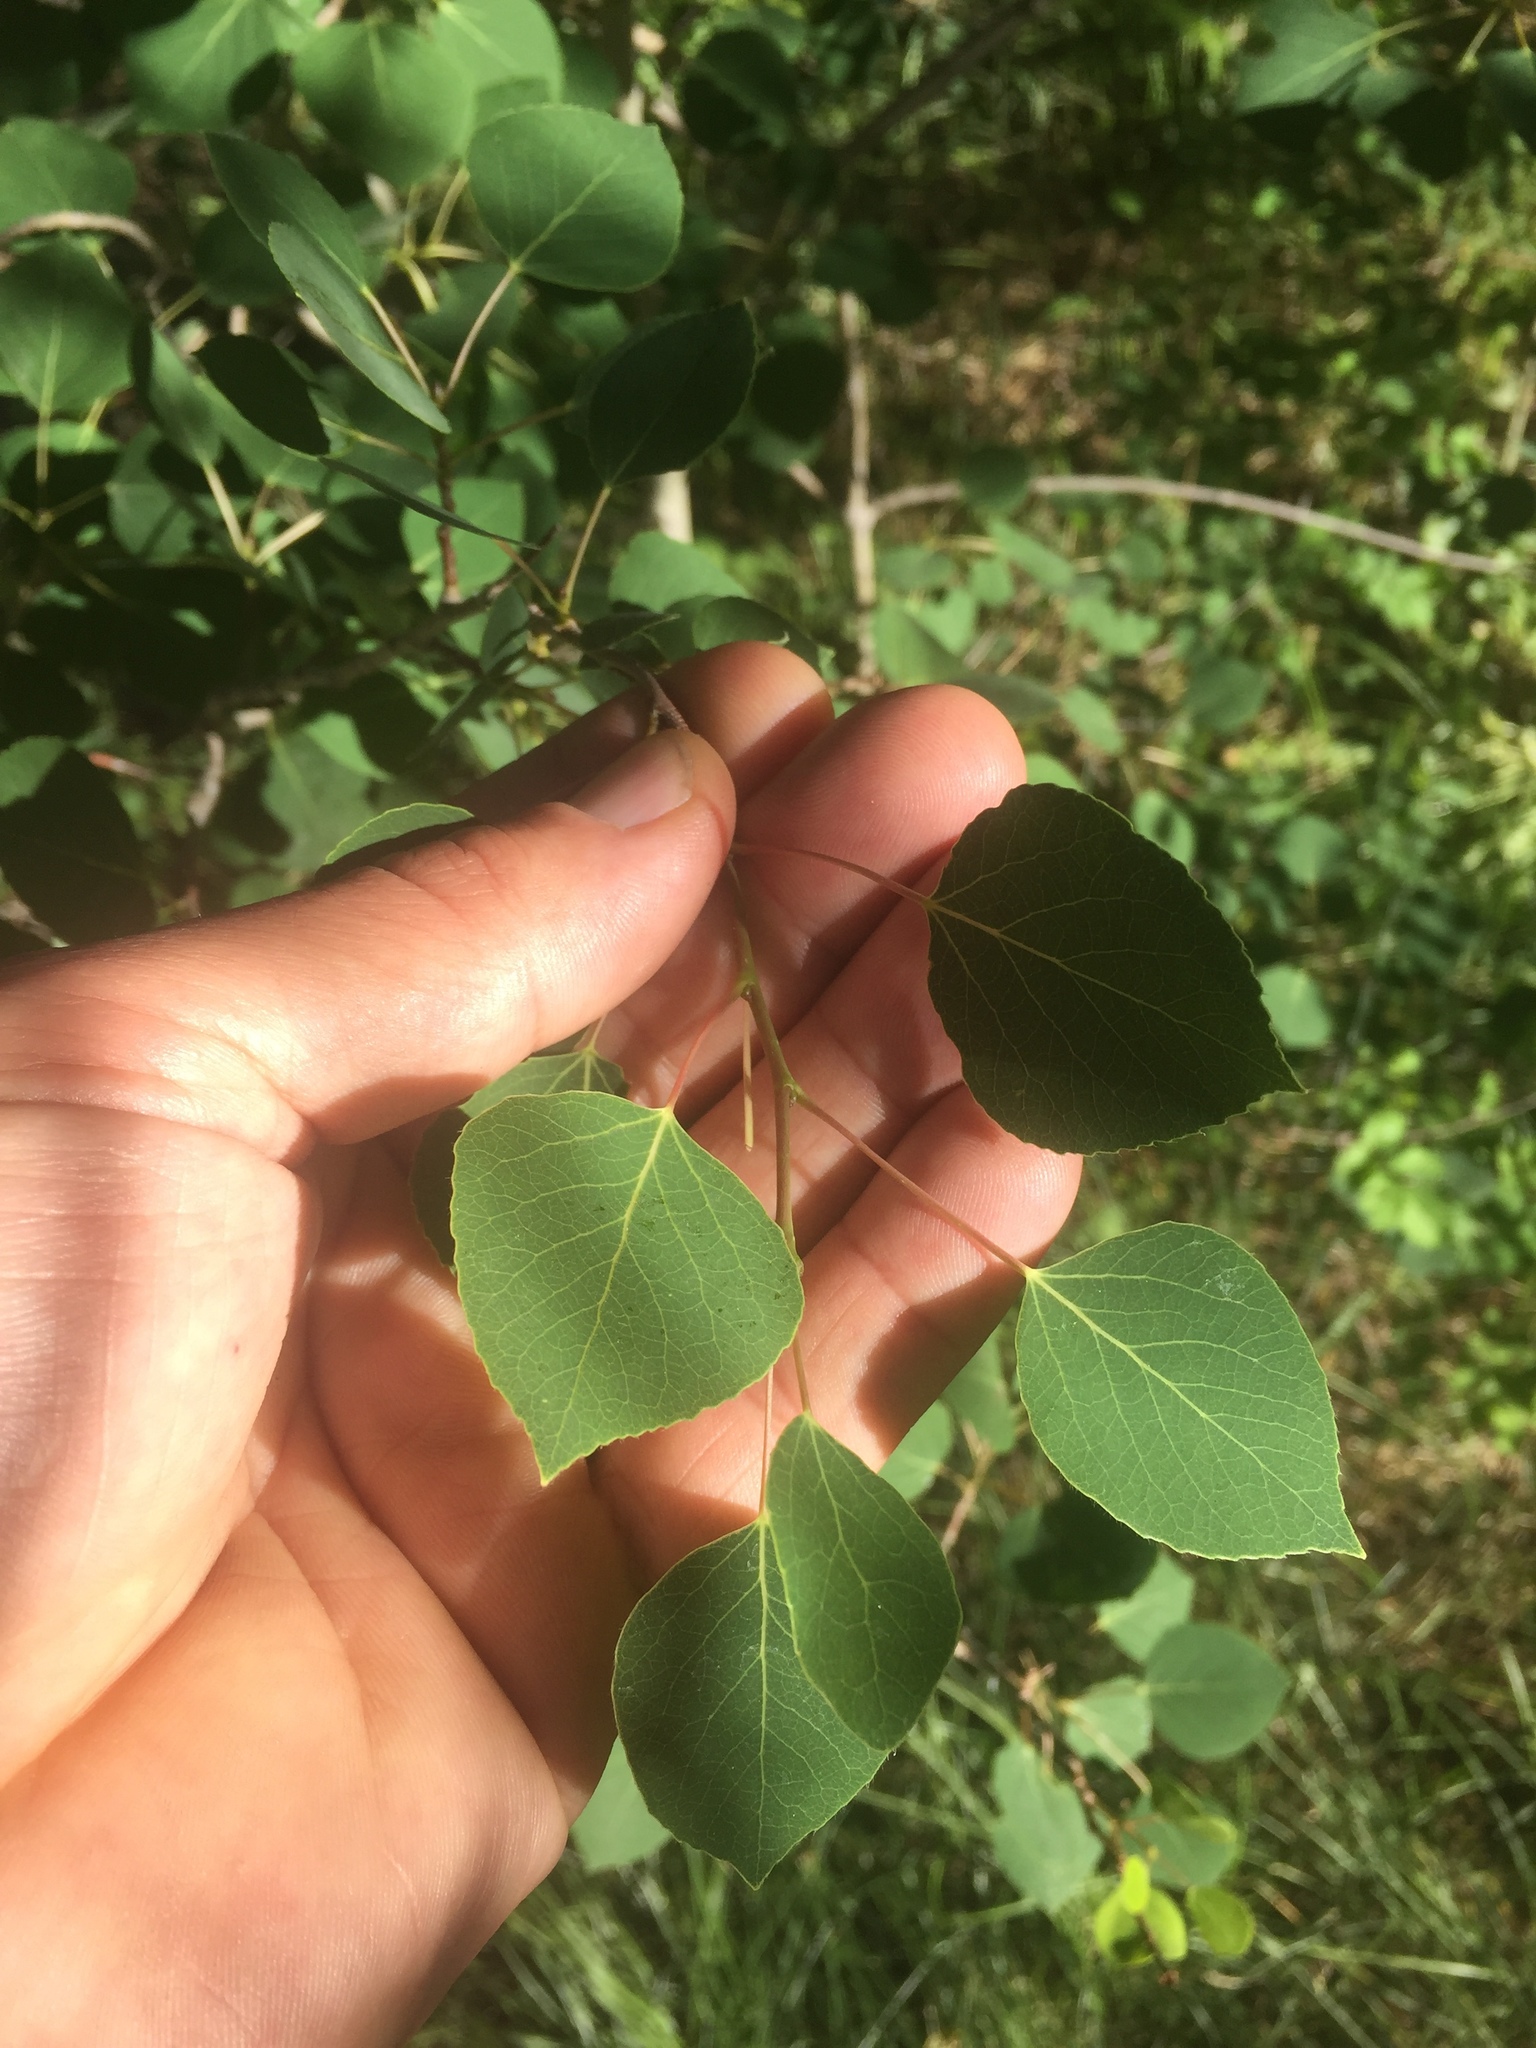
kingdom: Plantae
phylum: Tracheophyta
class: Magnoliopsida
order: Malpighiales
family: Salicaceae
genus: Populus
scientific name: Populus tremuloides
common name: Quaking aspen
